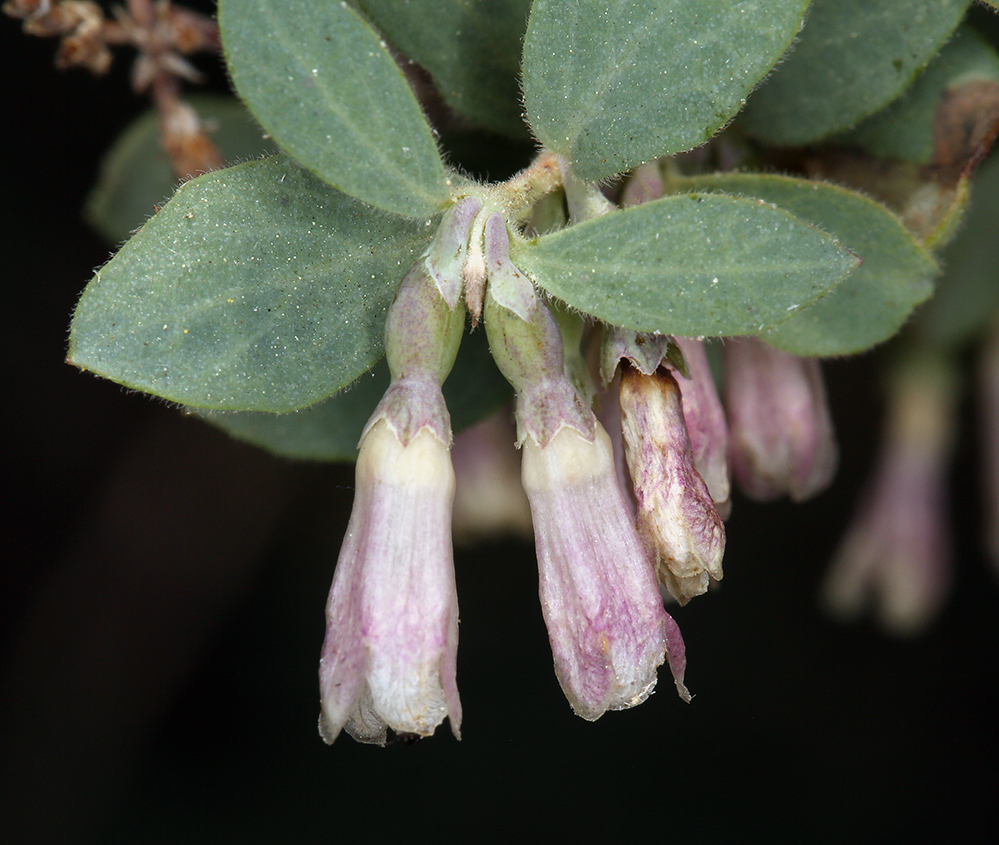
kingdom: Plantae
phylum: Tracheophyta
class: Magnoliopsida
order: Dipsacales
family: Caprifoliaceae
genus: Symphoricarpos
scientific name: Symphoricarpos rotundifolius
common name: Round-leaved snowberry
